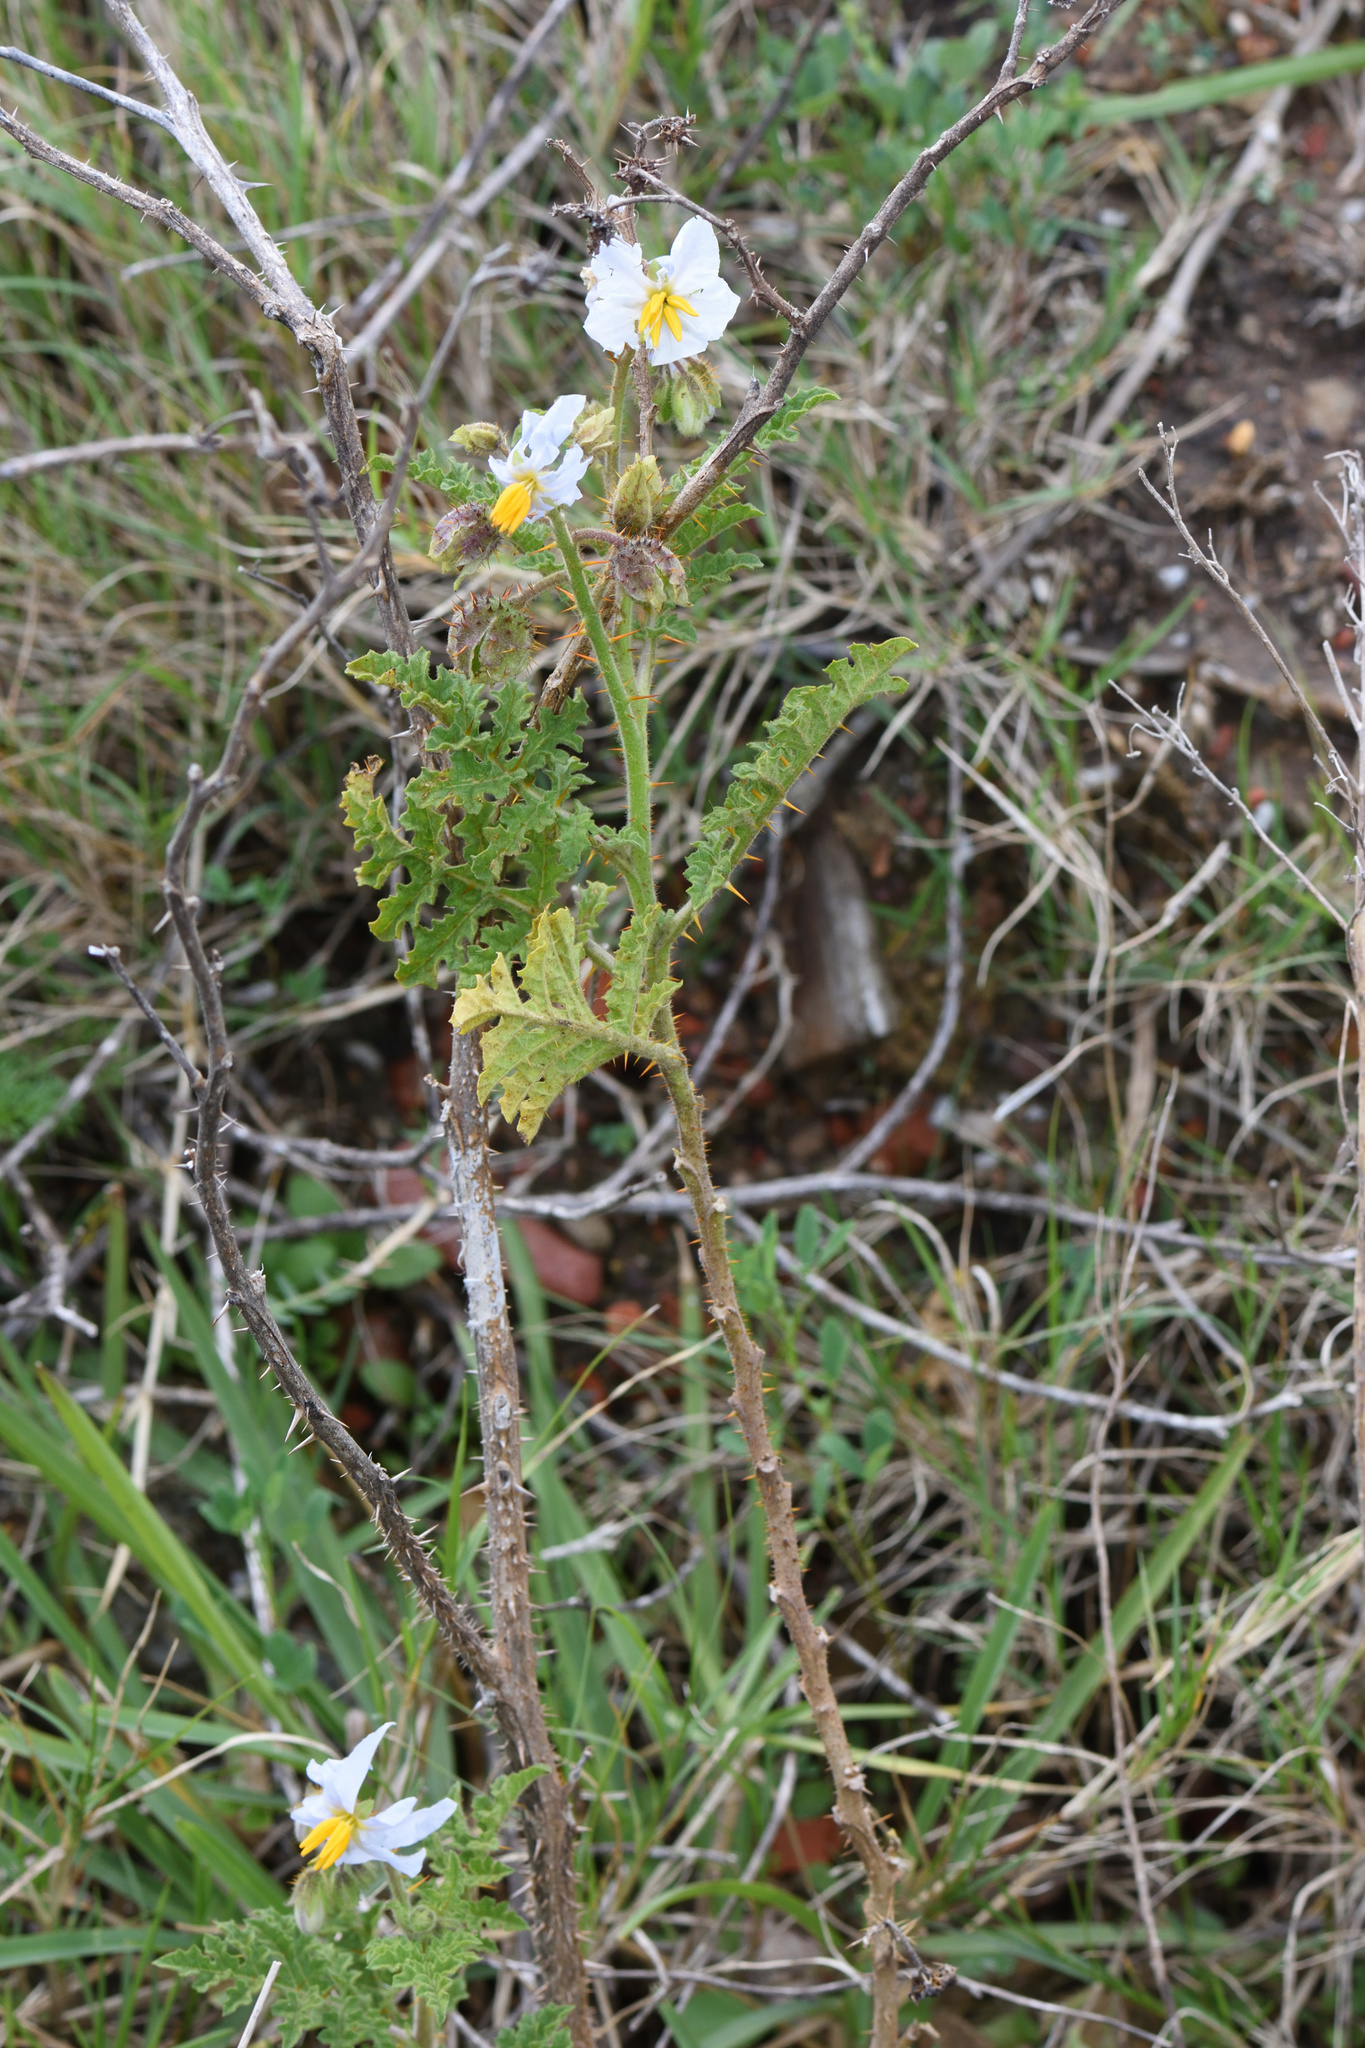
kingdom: Plantae
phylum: Tracheophyta
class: Magnoliopsida
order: Solanales
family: Solanaceae
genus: Solanum
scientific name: Solanum sisymbriifolium
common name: Red buffalo-bur
